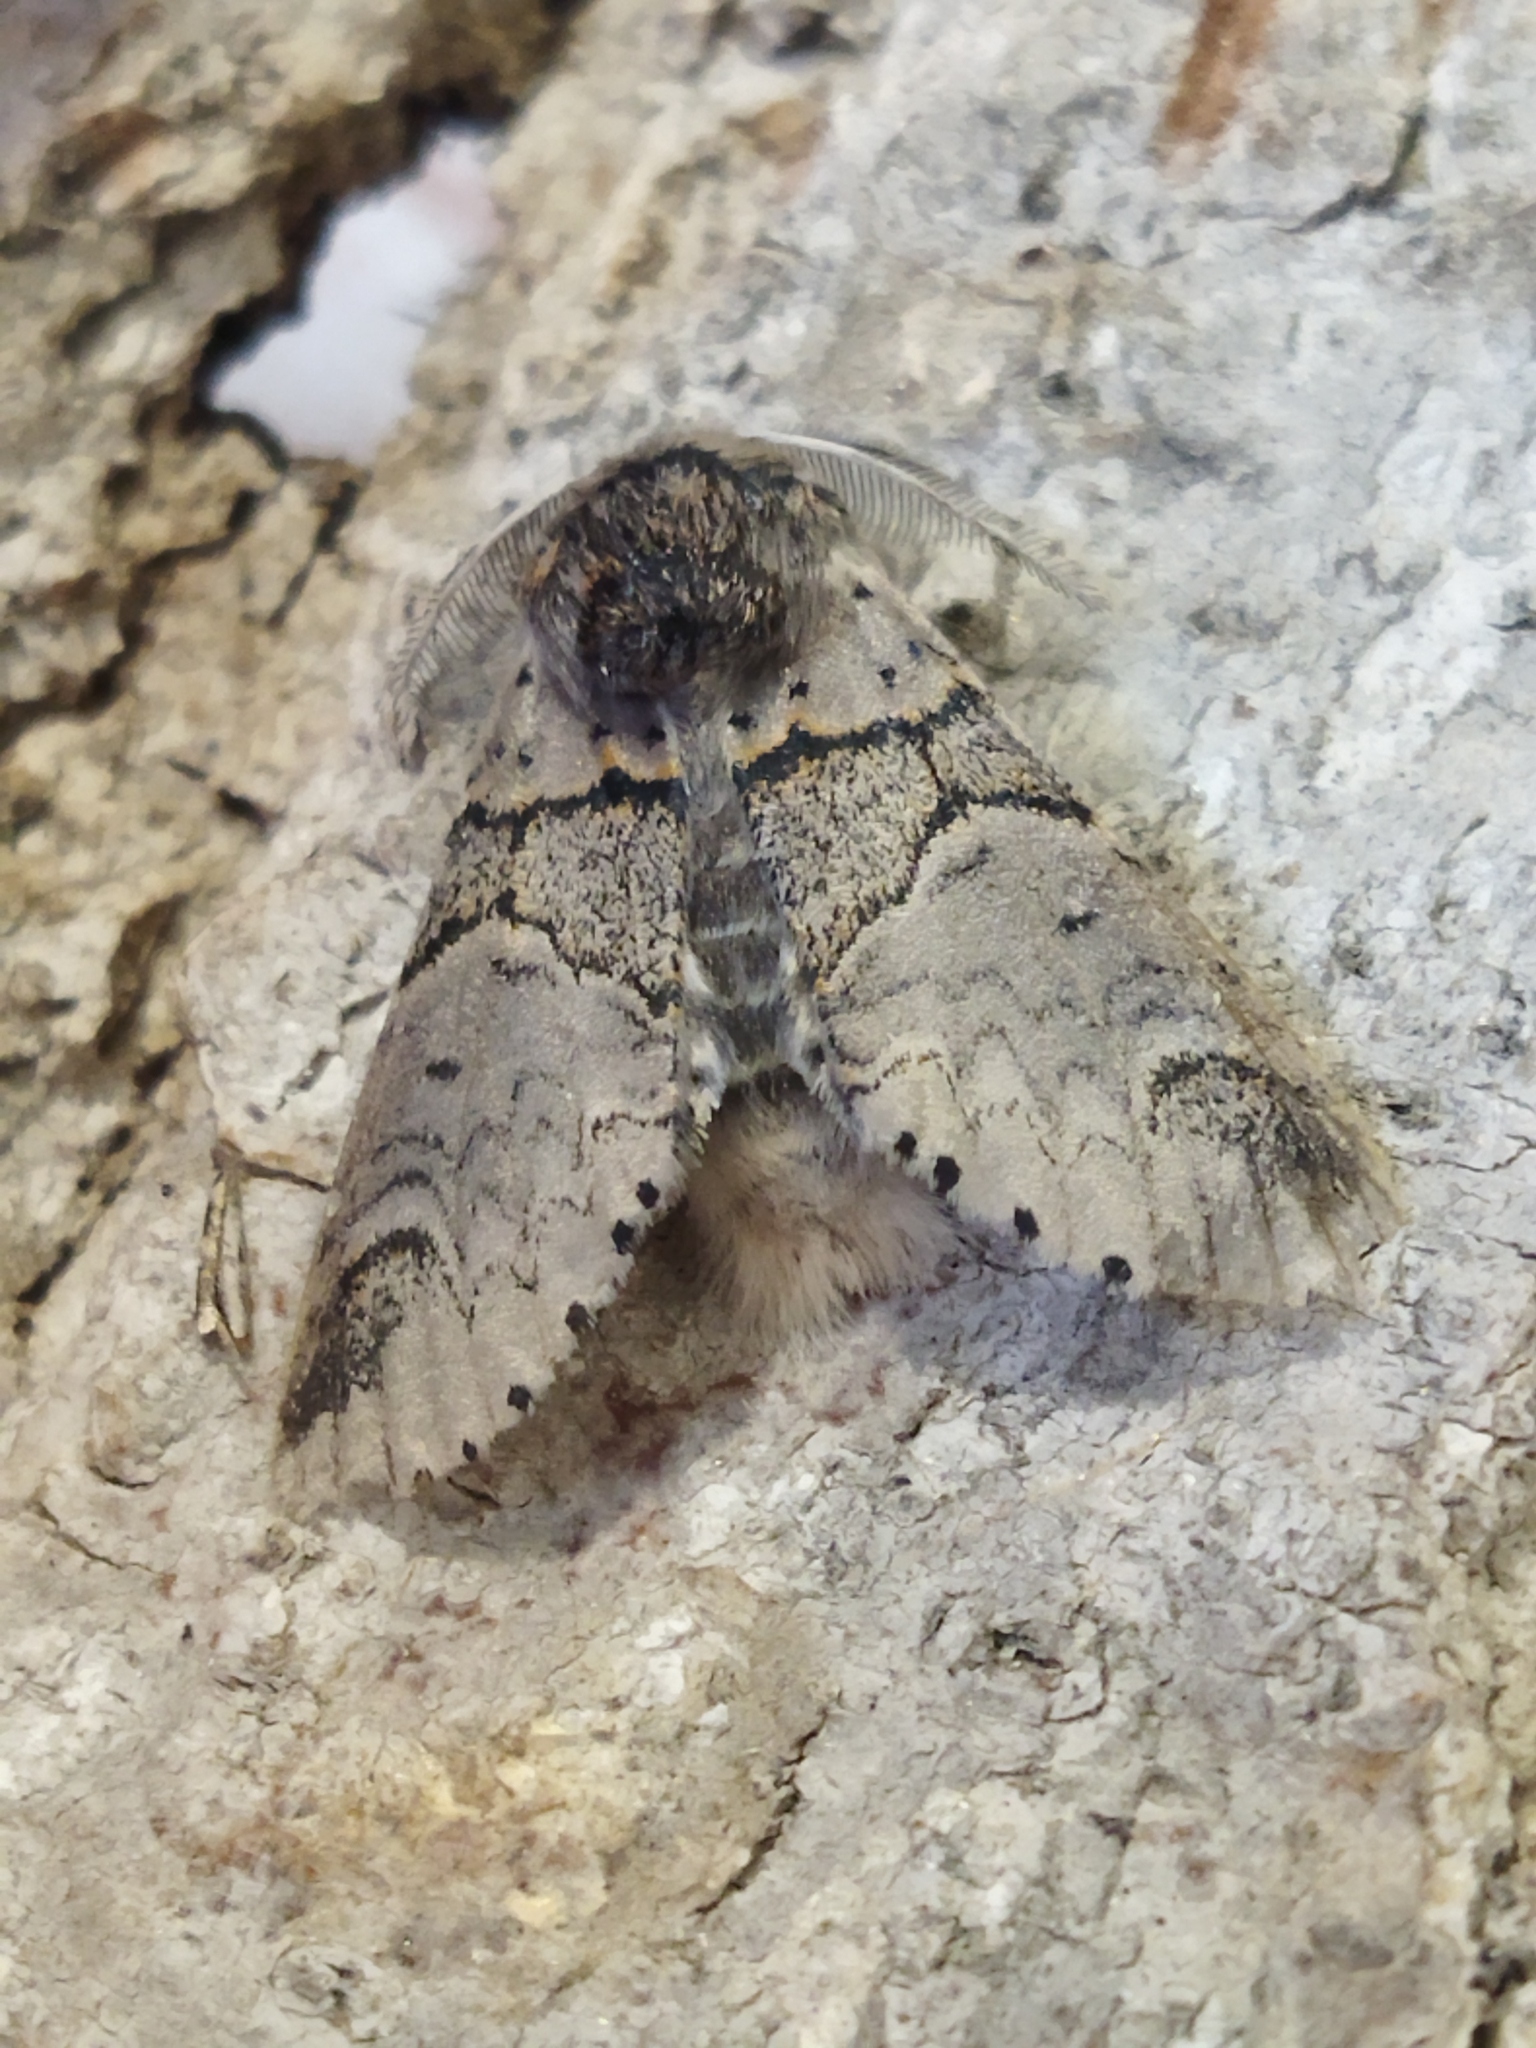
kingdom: Animalia
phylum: Arthropoda
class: Insecta
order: Lepidoptera
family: Notodontidae
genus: Furcula
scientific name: Furcula bifida
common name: Poplar kitten
